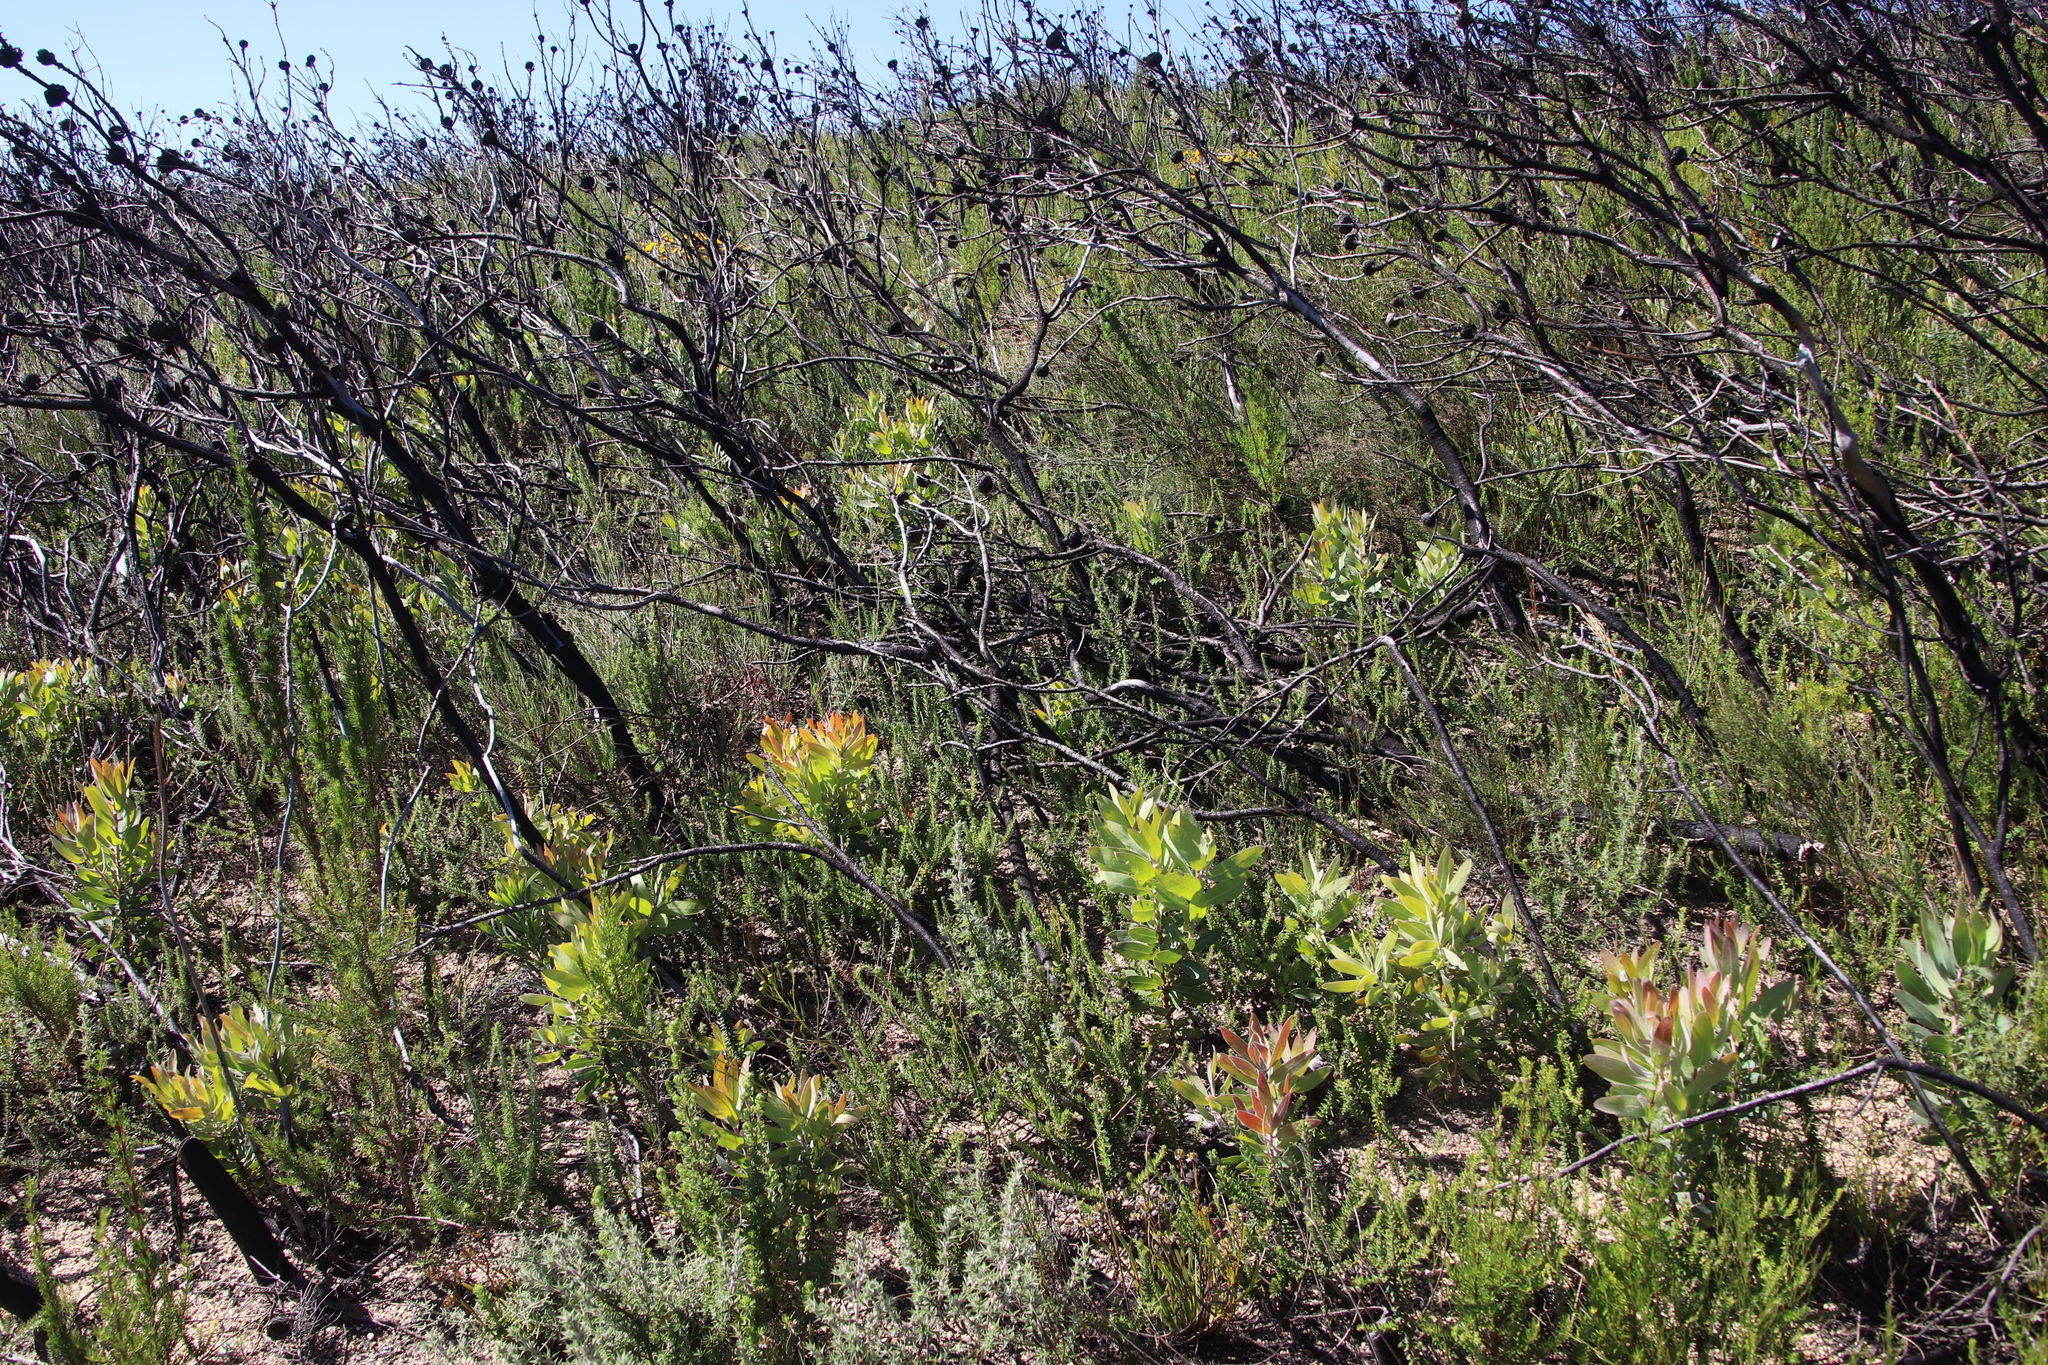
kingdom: Plantae
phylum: Tracheophyta
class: Magnoliopsida
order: Proteales
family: Proteaceae
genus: Protea
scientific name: Protea laurifolia
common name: Grey-leaf sugarbsh
